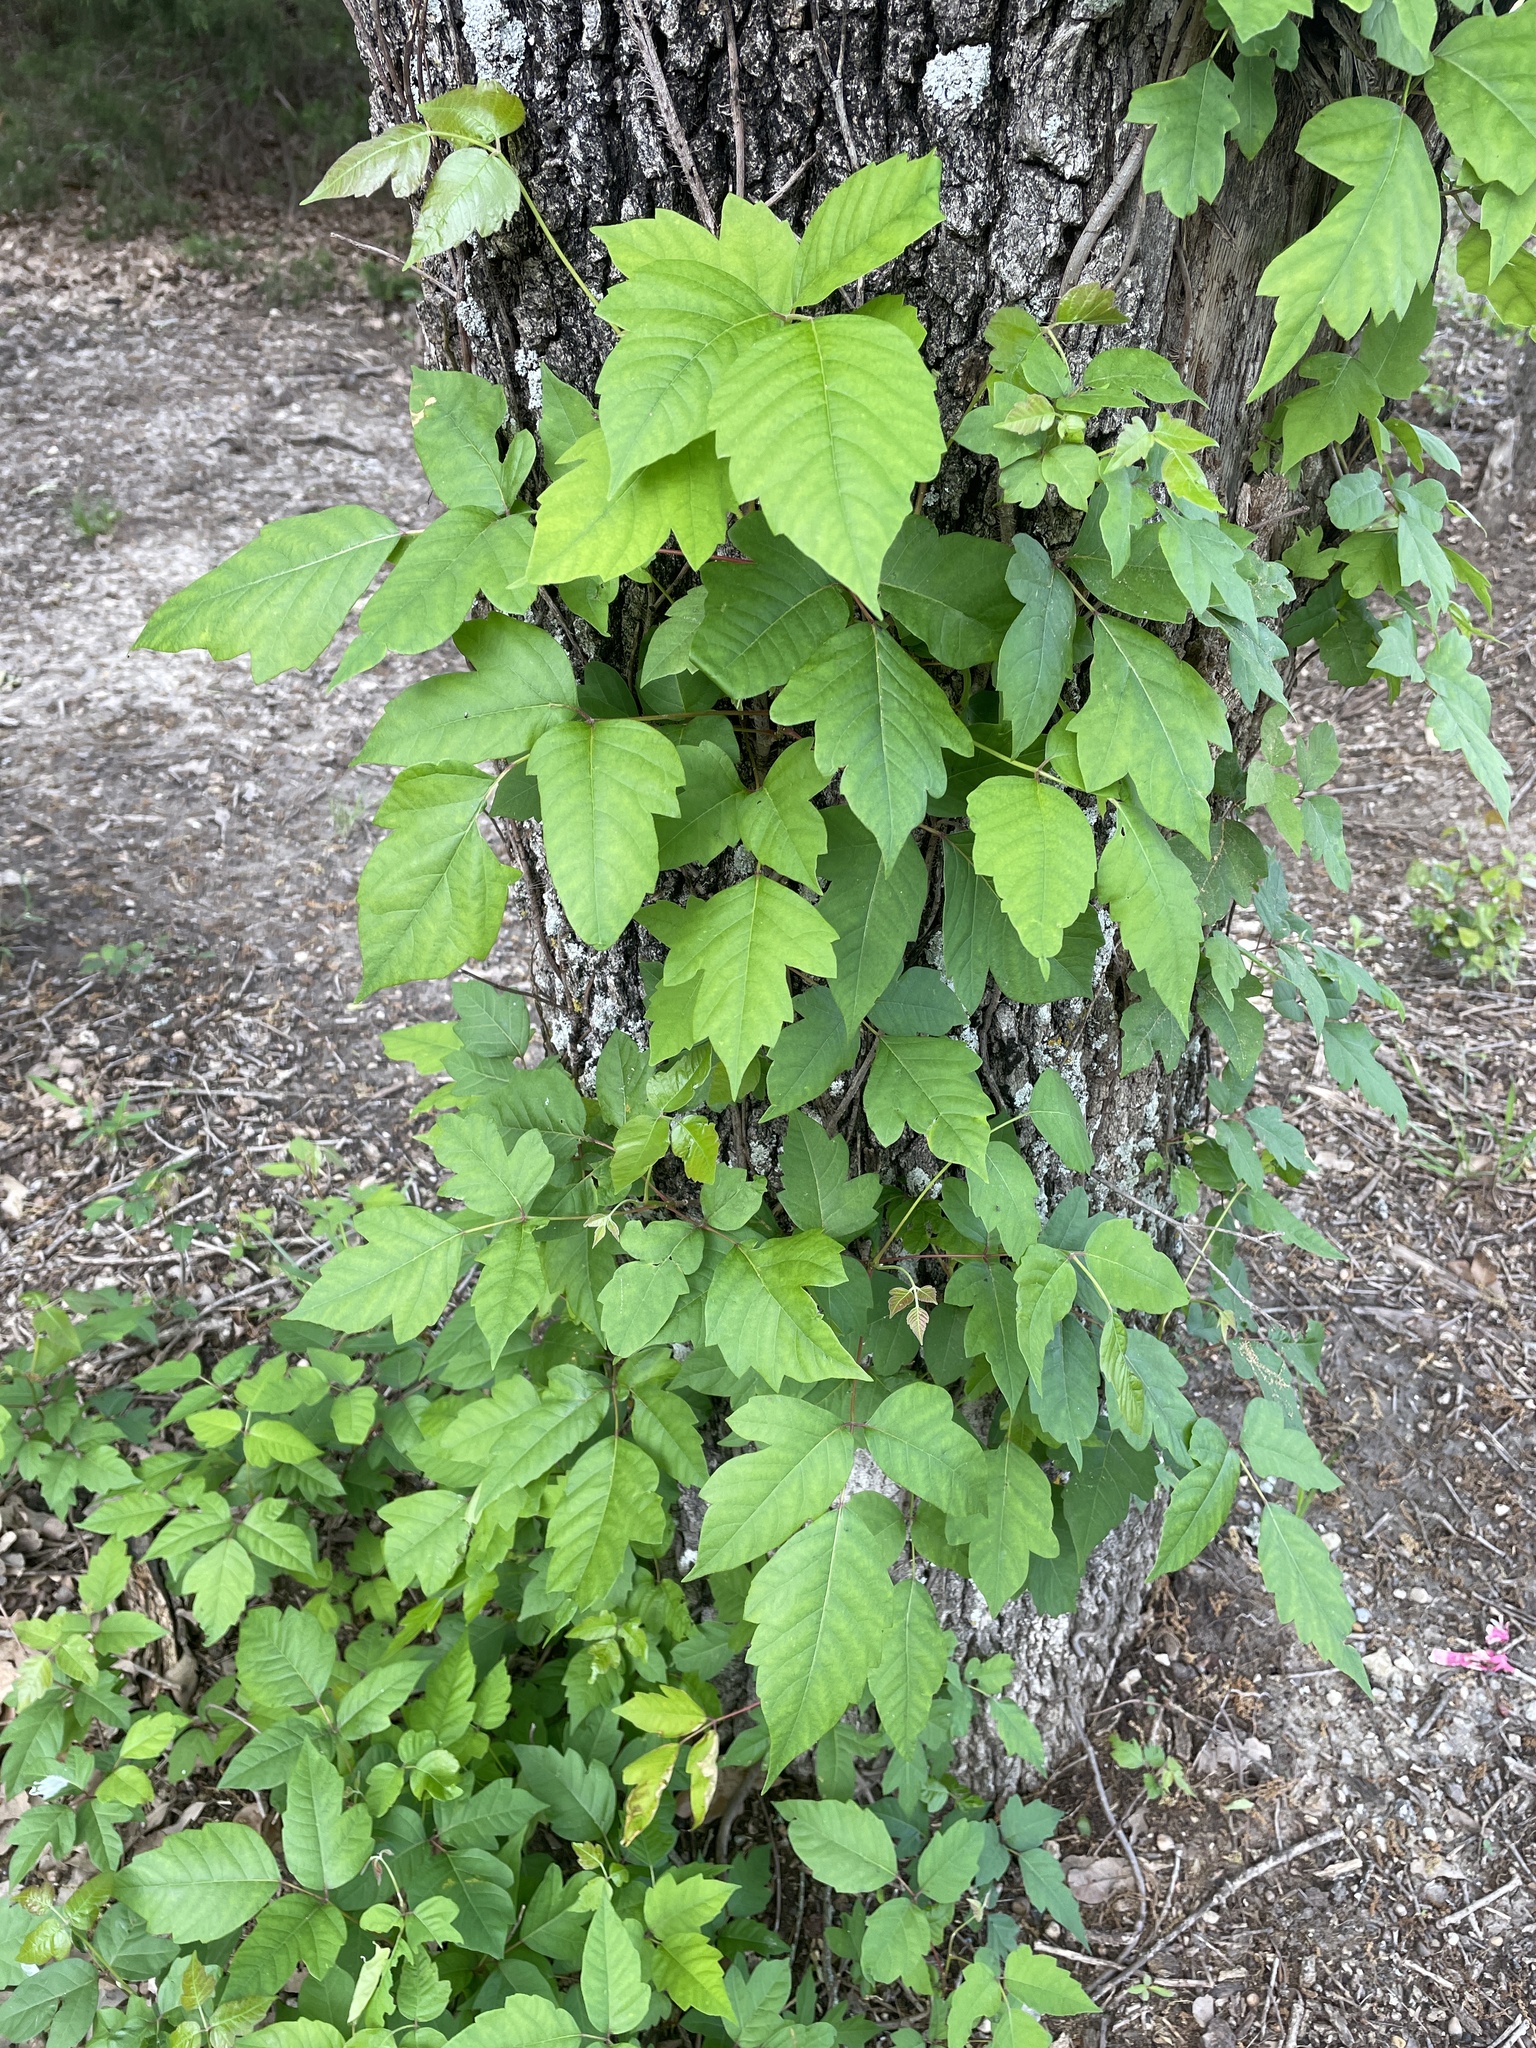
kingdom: Plantae
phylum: Tracheophyta
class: Magnoliopsida
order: Sapindales
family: Anacardiaceae
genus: Toxicodendron
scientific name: Toxicodendron radicans
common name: Poison ivy
